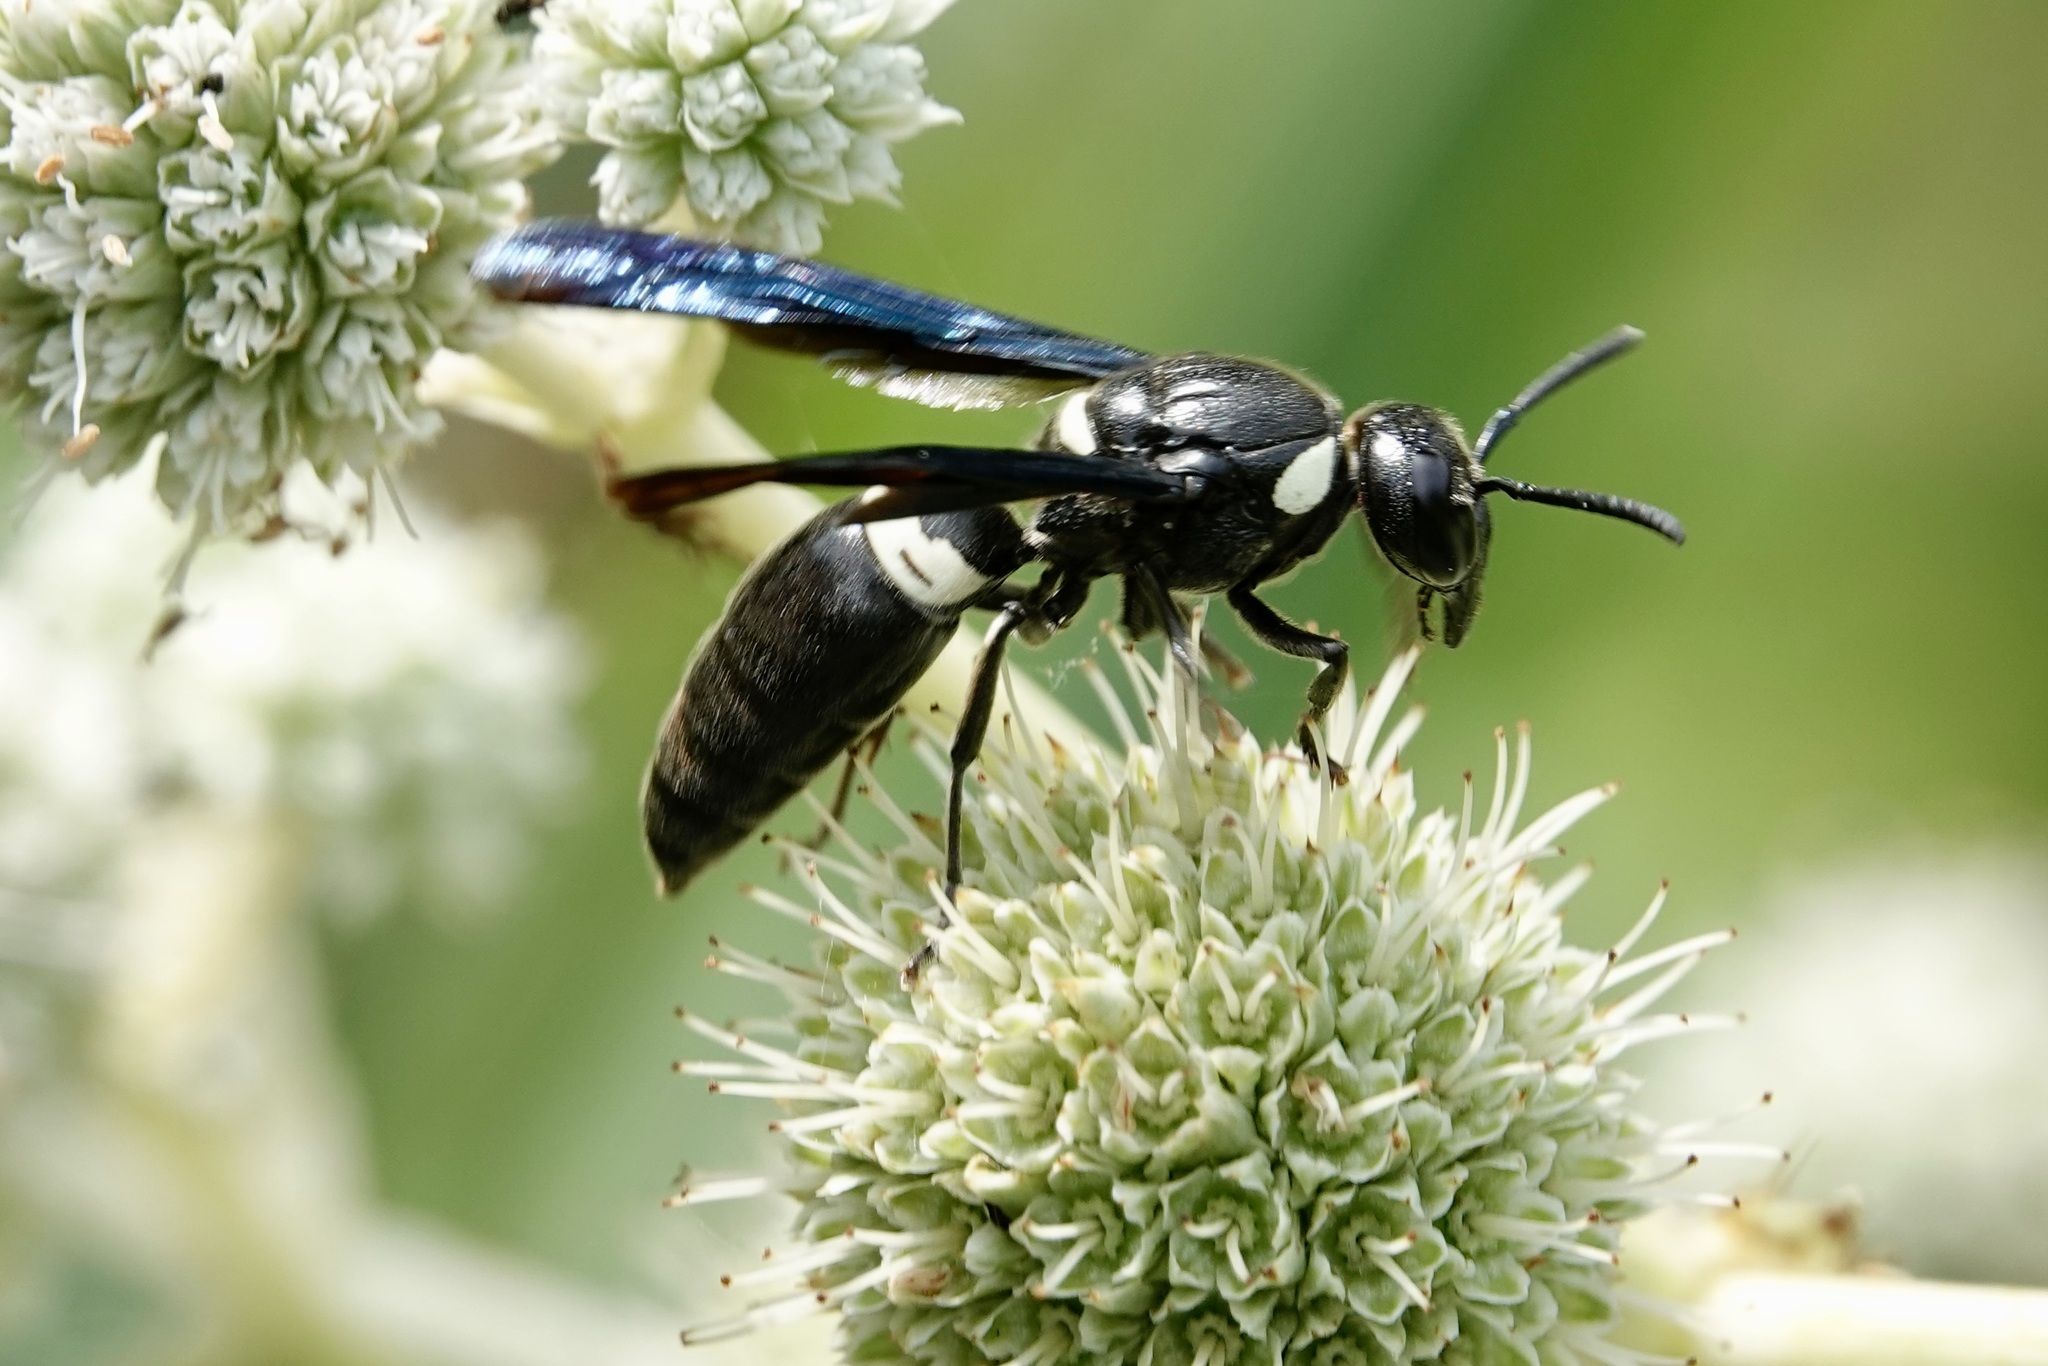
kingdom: Animalia
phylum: Arthropoda
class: Insecta
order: Hymenoptera
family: Eumenidae
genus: Monobia
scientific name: Monobia quadridens
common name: Four-toothed mason wasp
